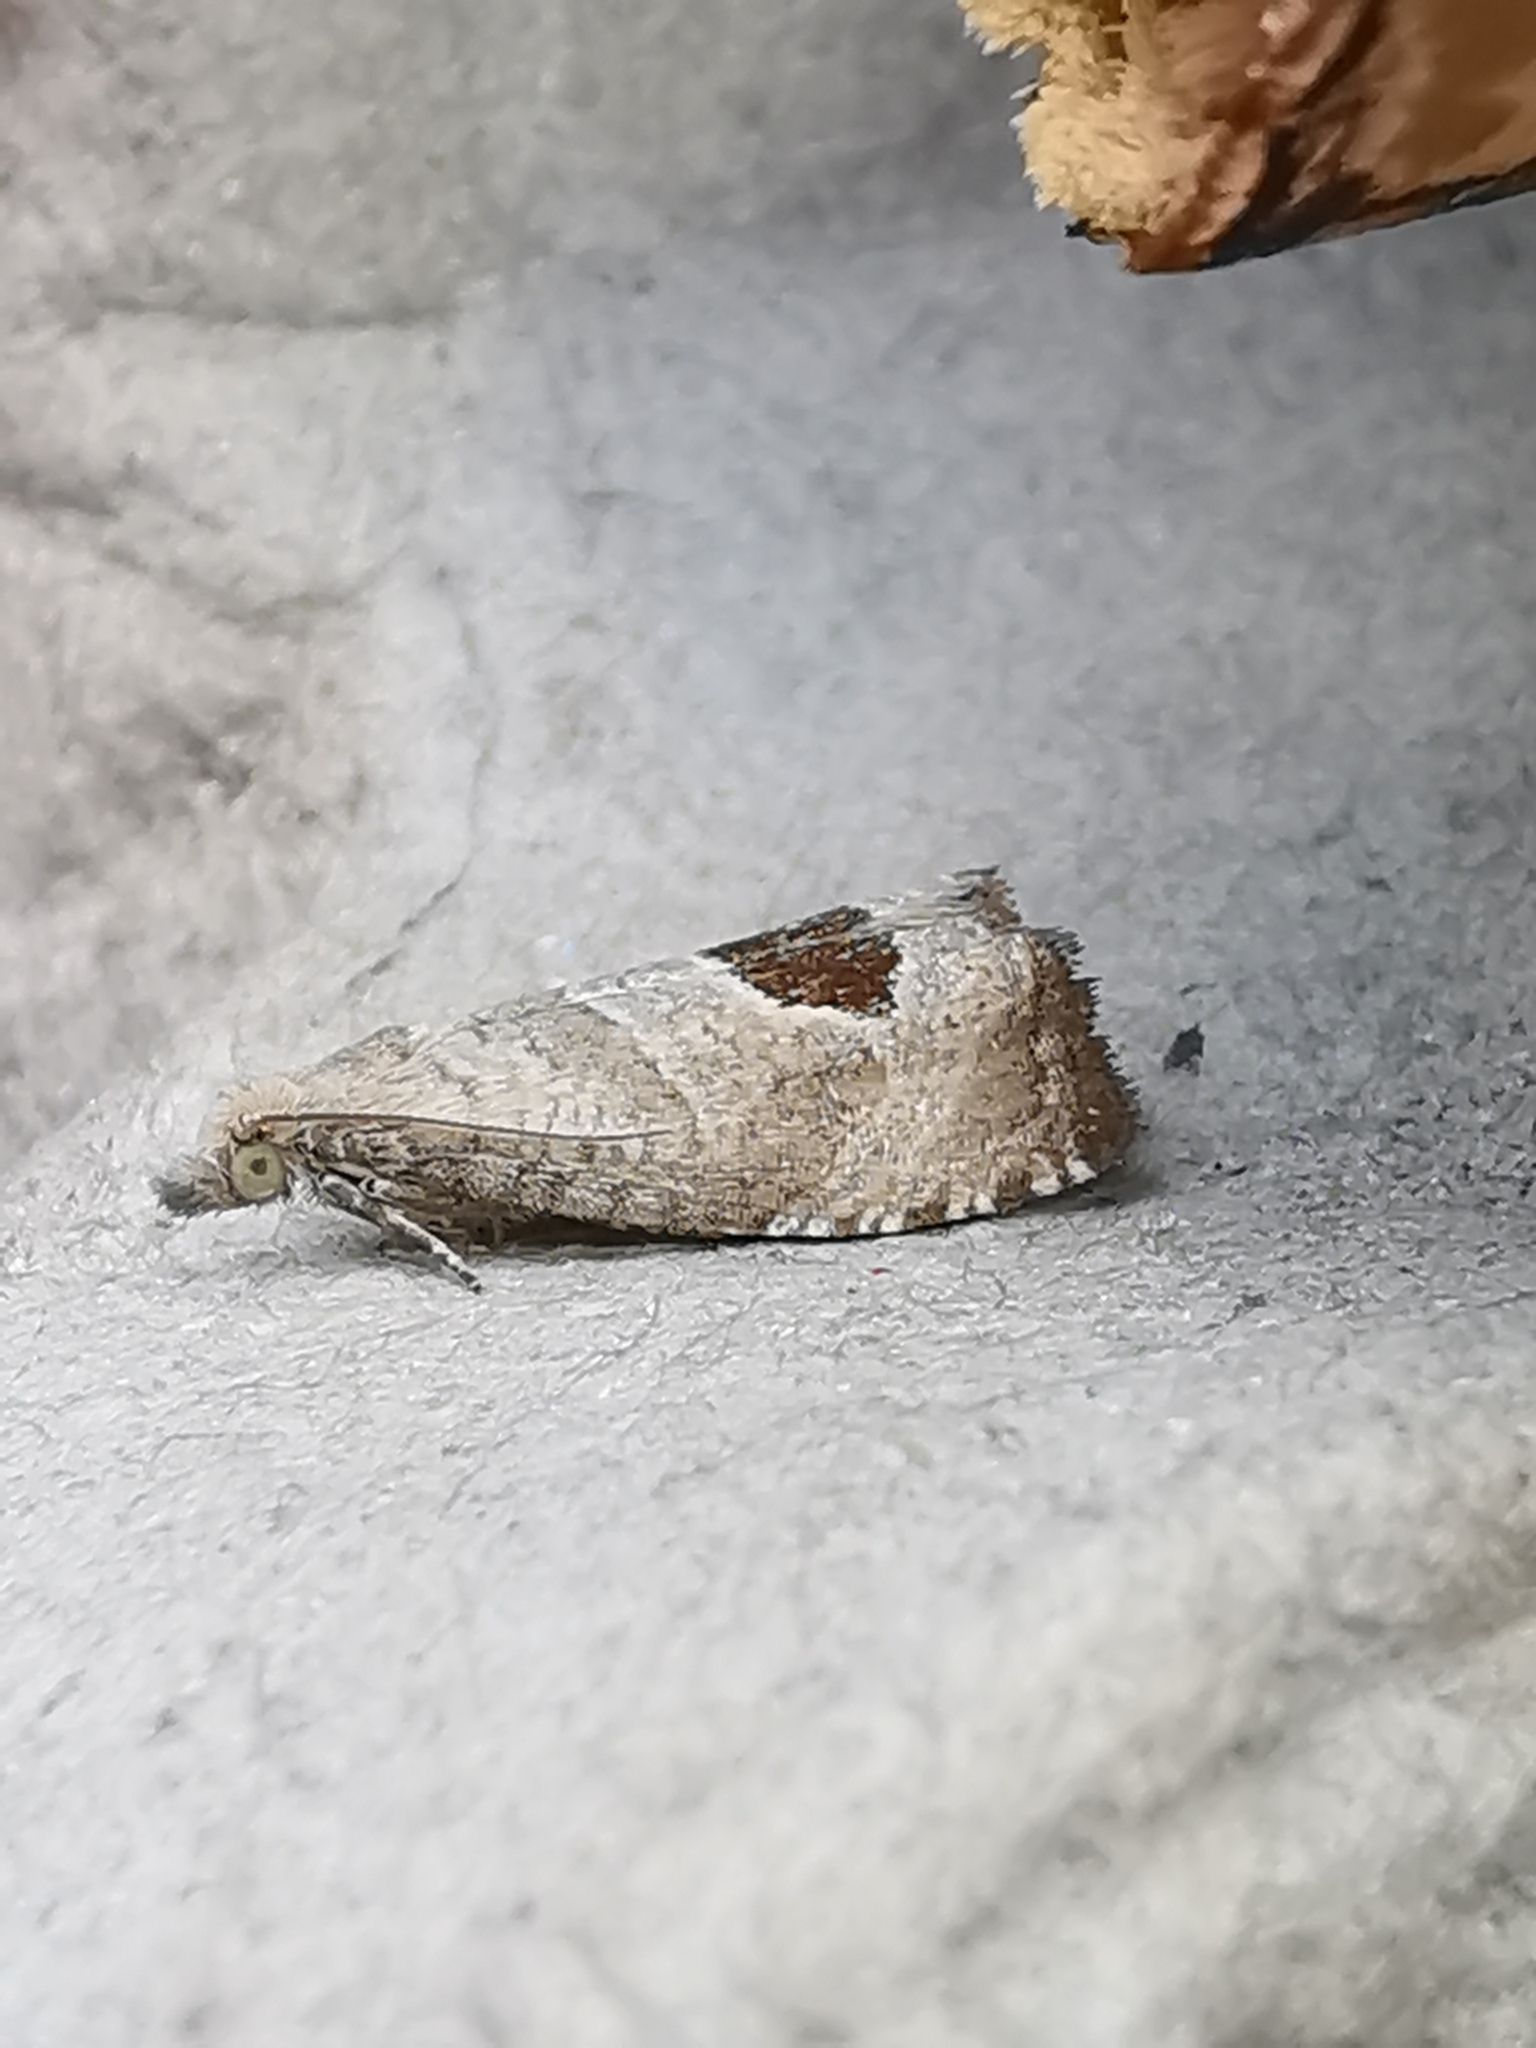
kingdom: Animalia
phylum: Arthropoda
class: Insecta
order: Lepidoptera
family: Tortricidae
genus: Notocelia
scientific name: Notocelia uddmanniana
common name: Bramble shoot moth
